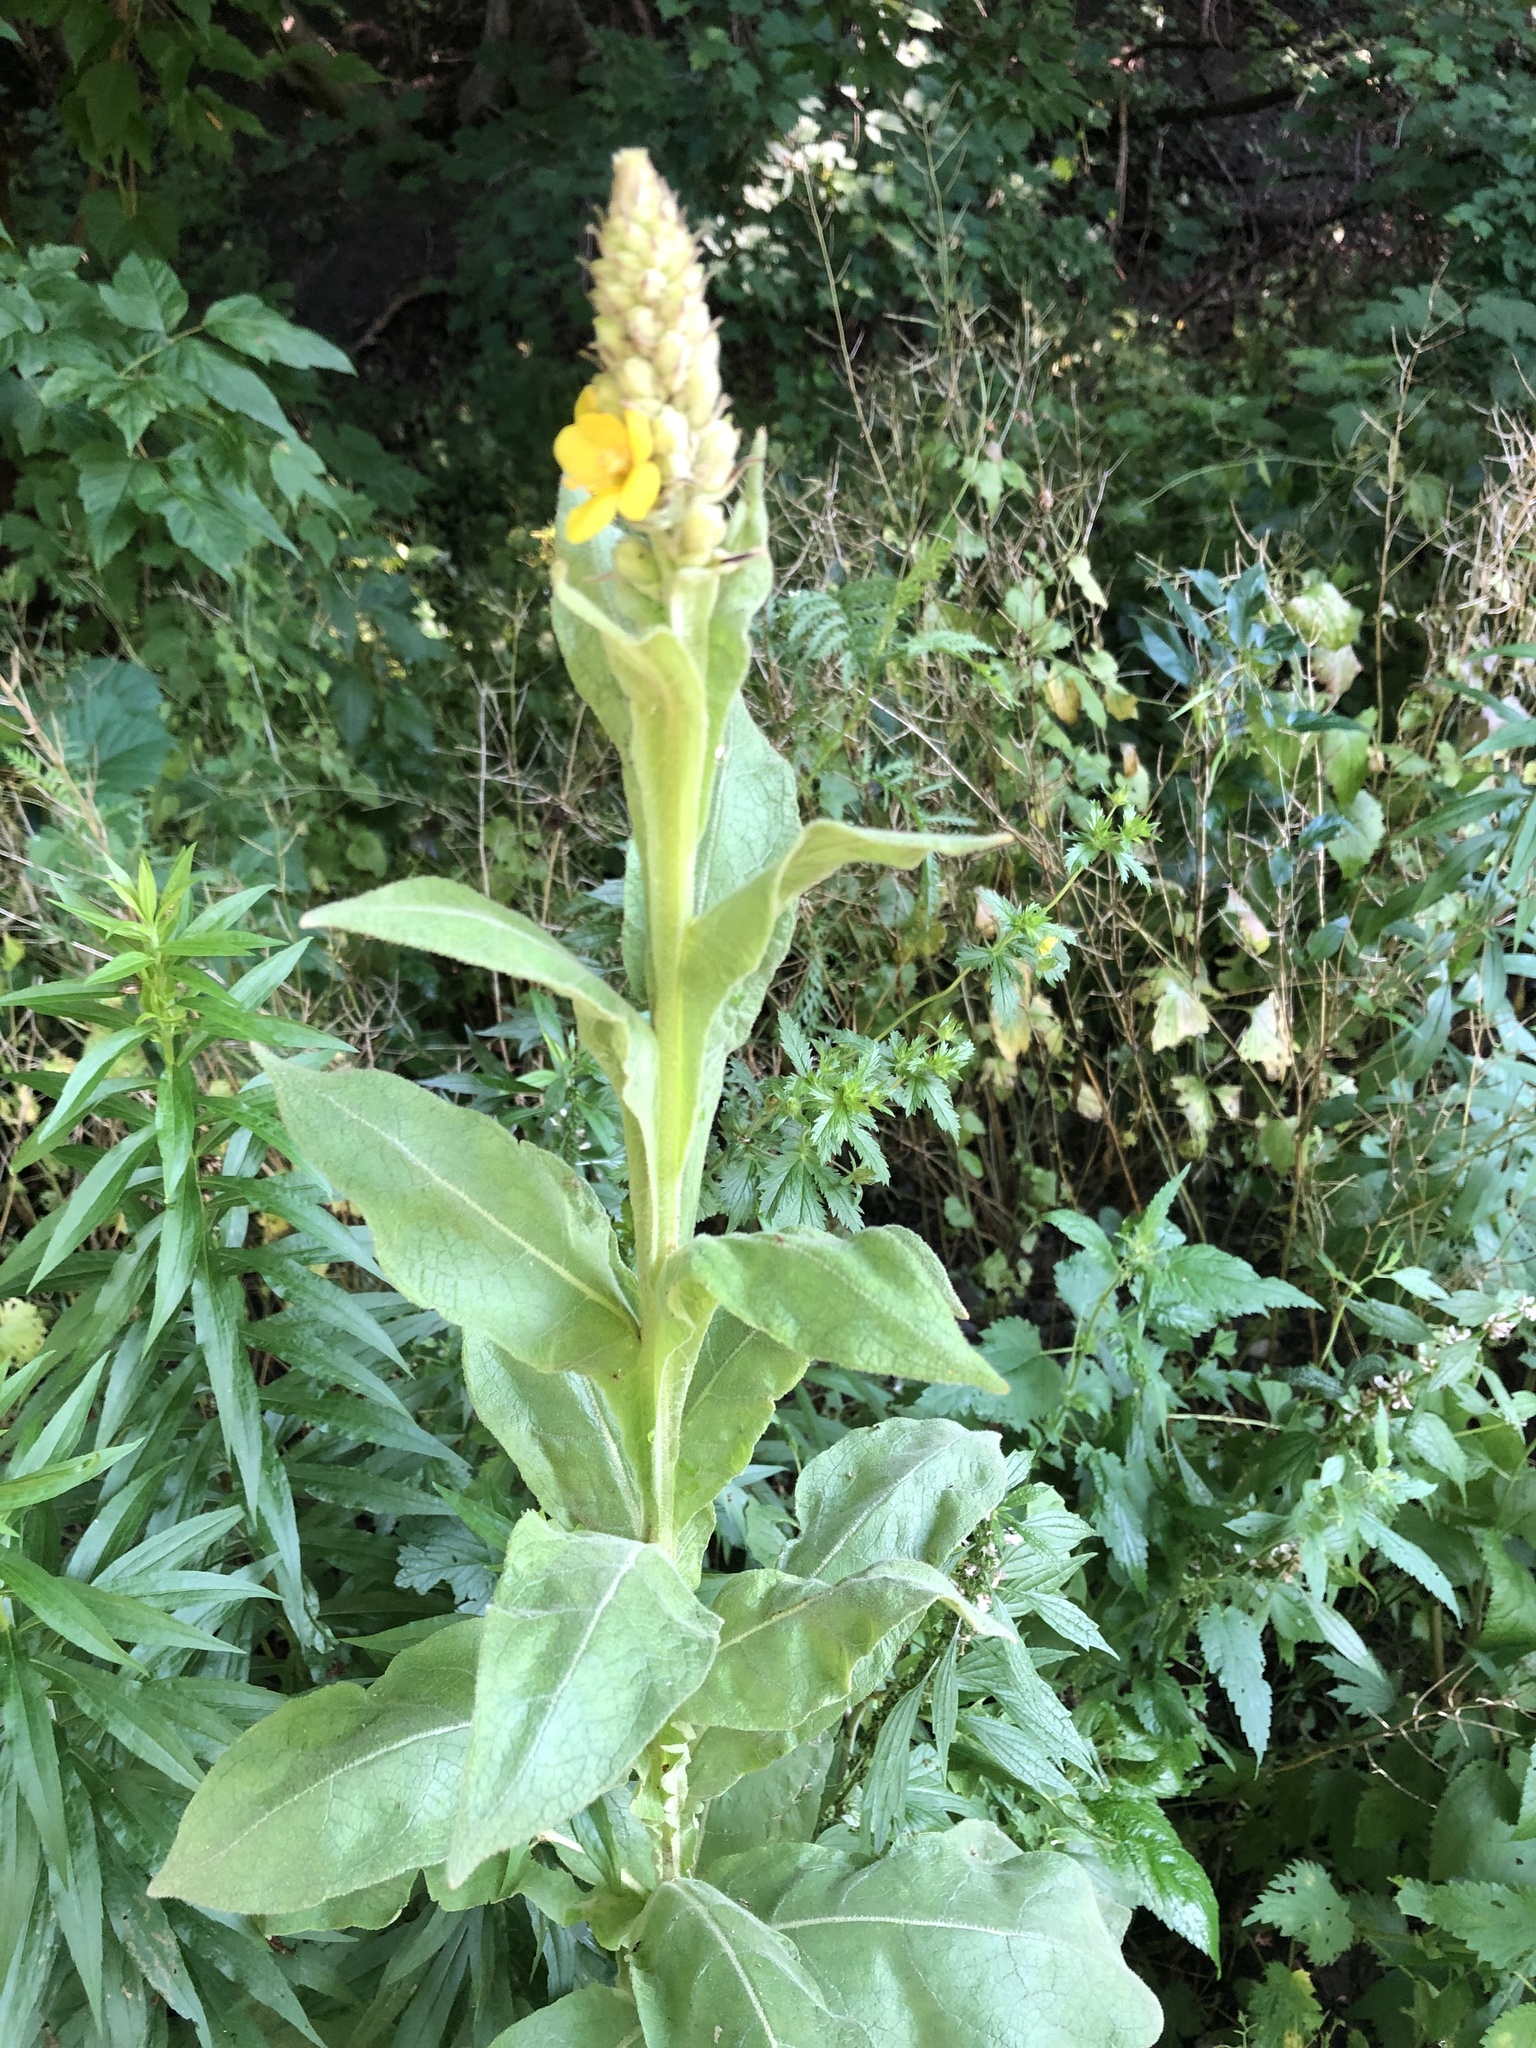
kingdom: Plantae
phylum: Tracheophyta
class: Magnoliopsida
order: Lamiales
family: Scrophulariaceae
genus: Verbascum
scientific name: Verbascum thapsus
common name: Common mullein
